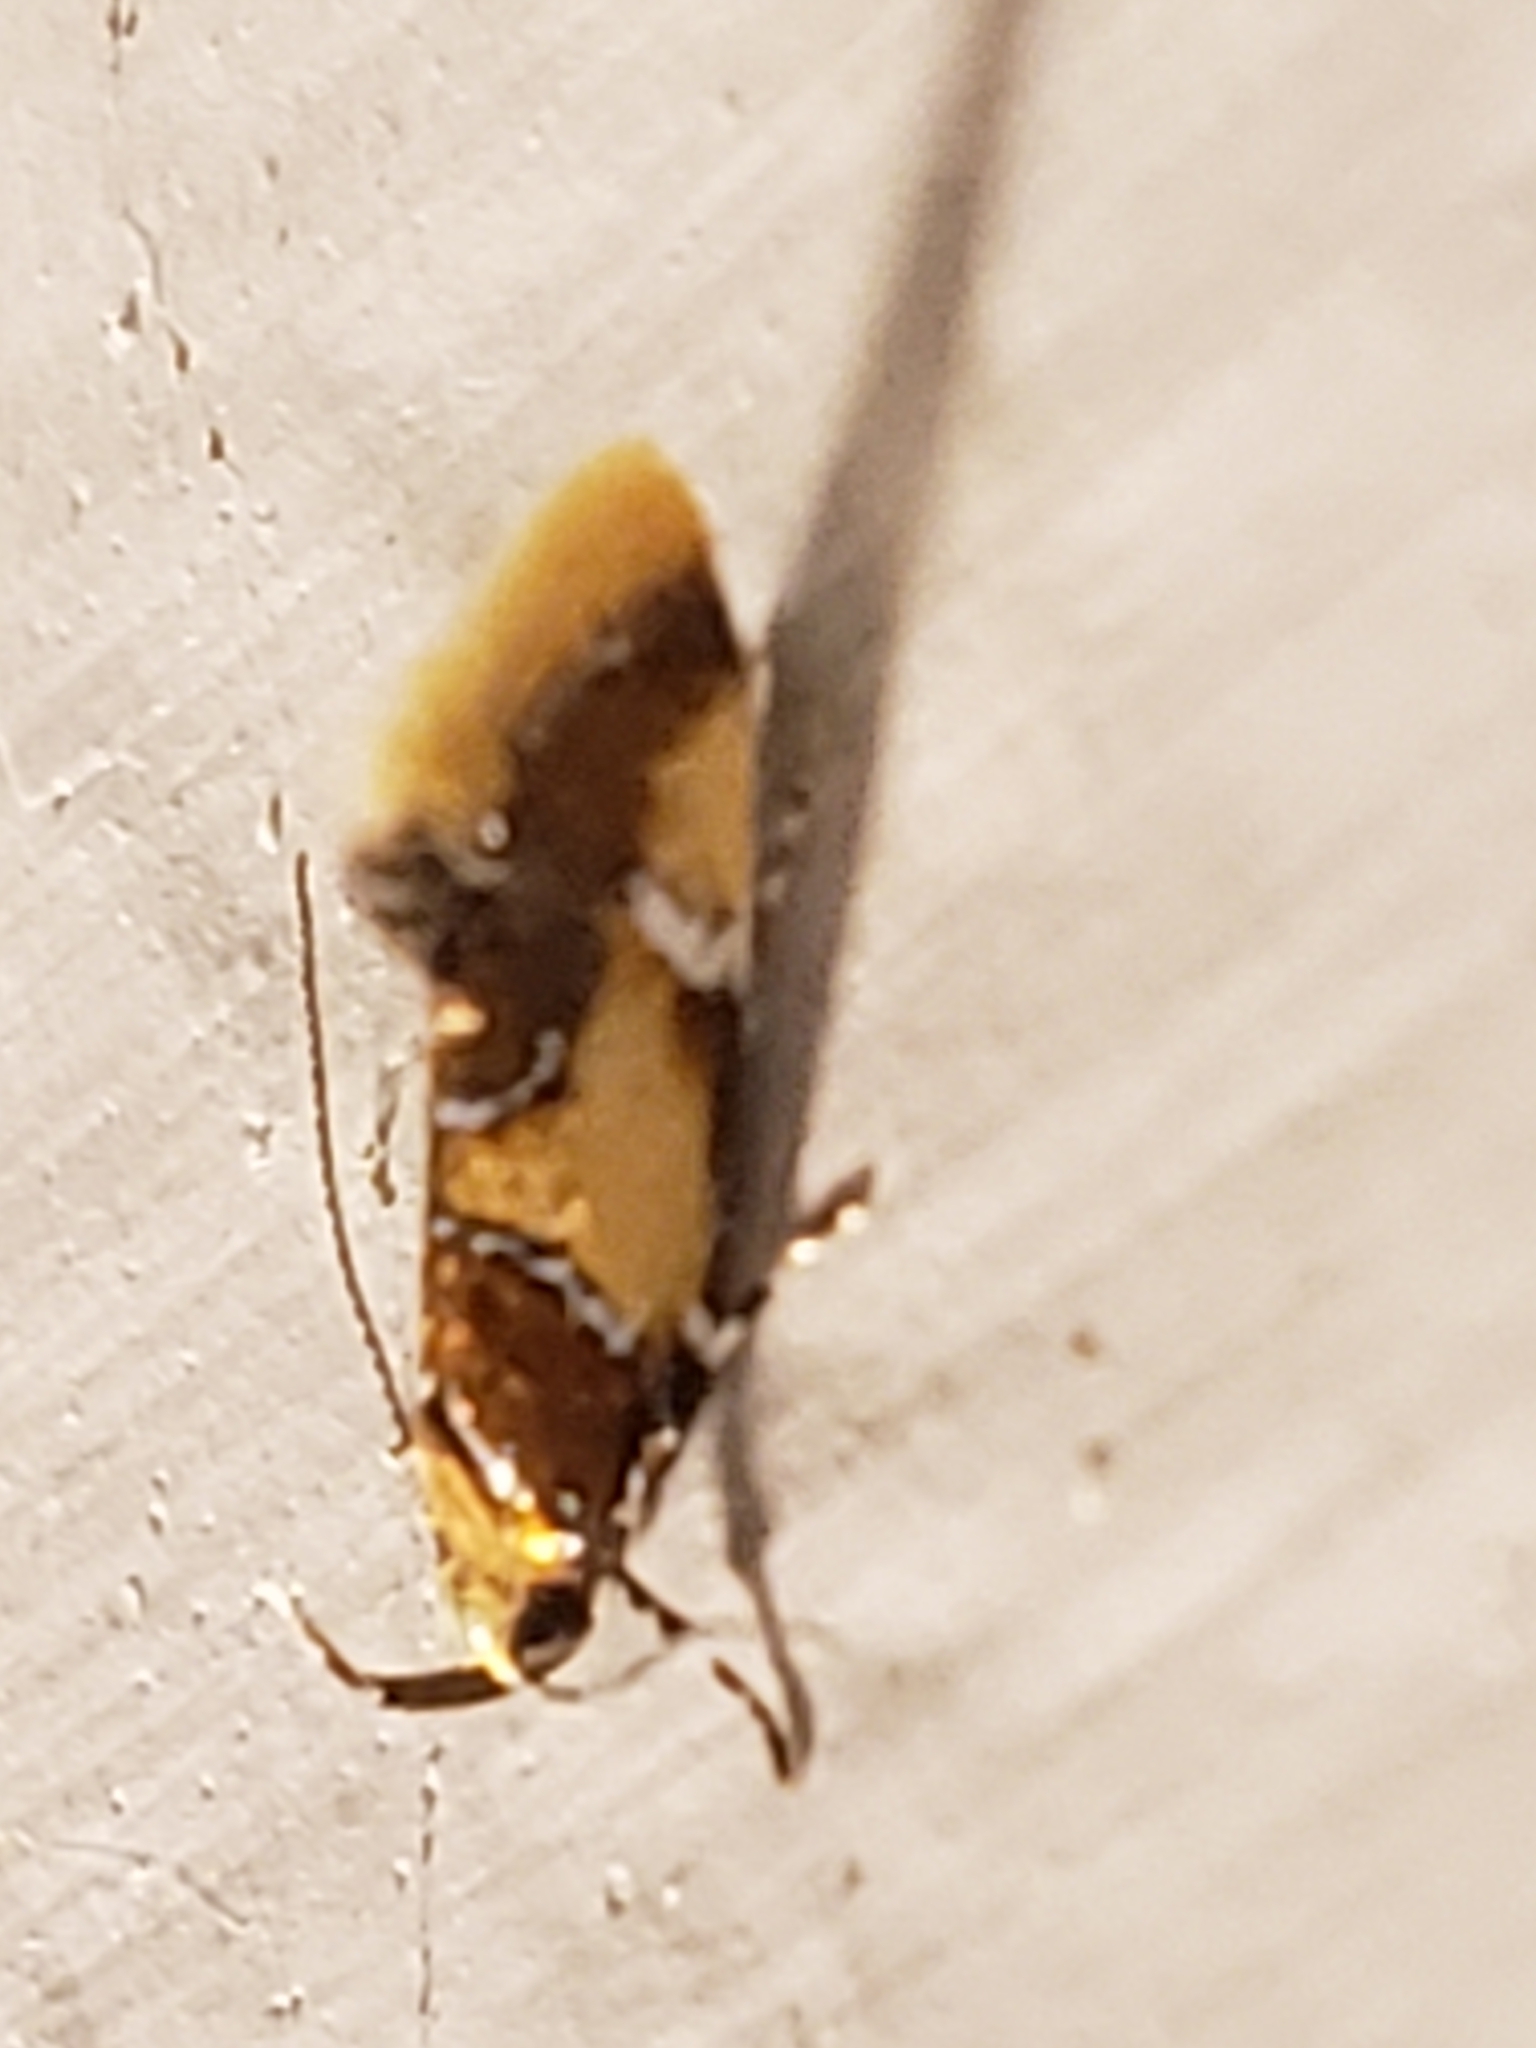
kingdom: Animalia
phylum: Arthropoda
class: Insecta
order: Lepidoptera
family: Oecophoridae
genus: Callima
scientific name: Callima argenticinctella
